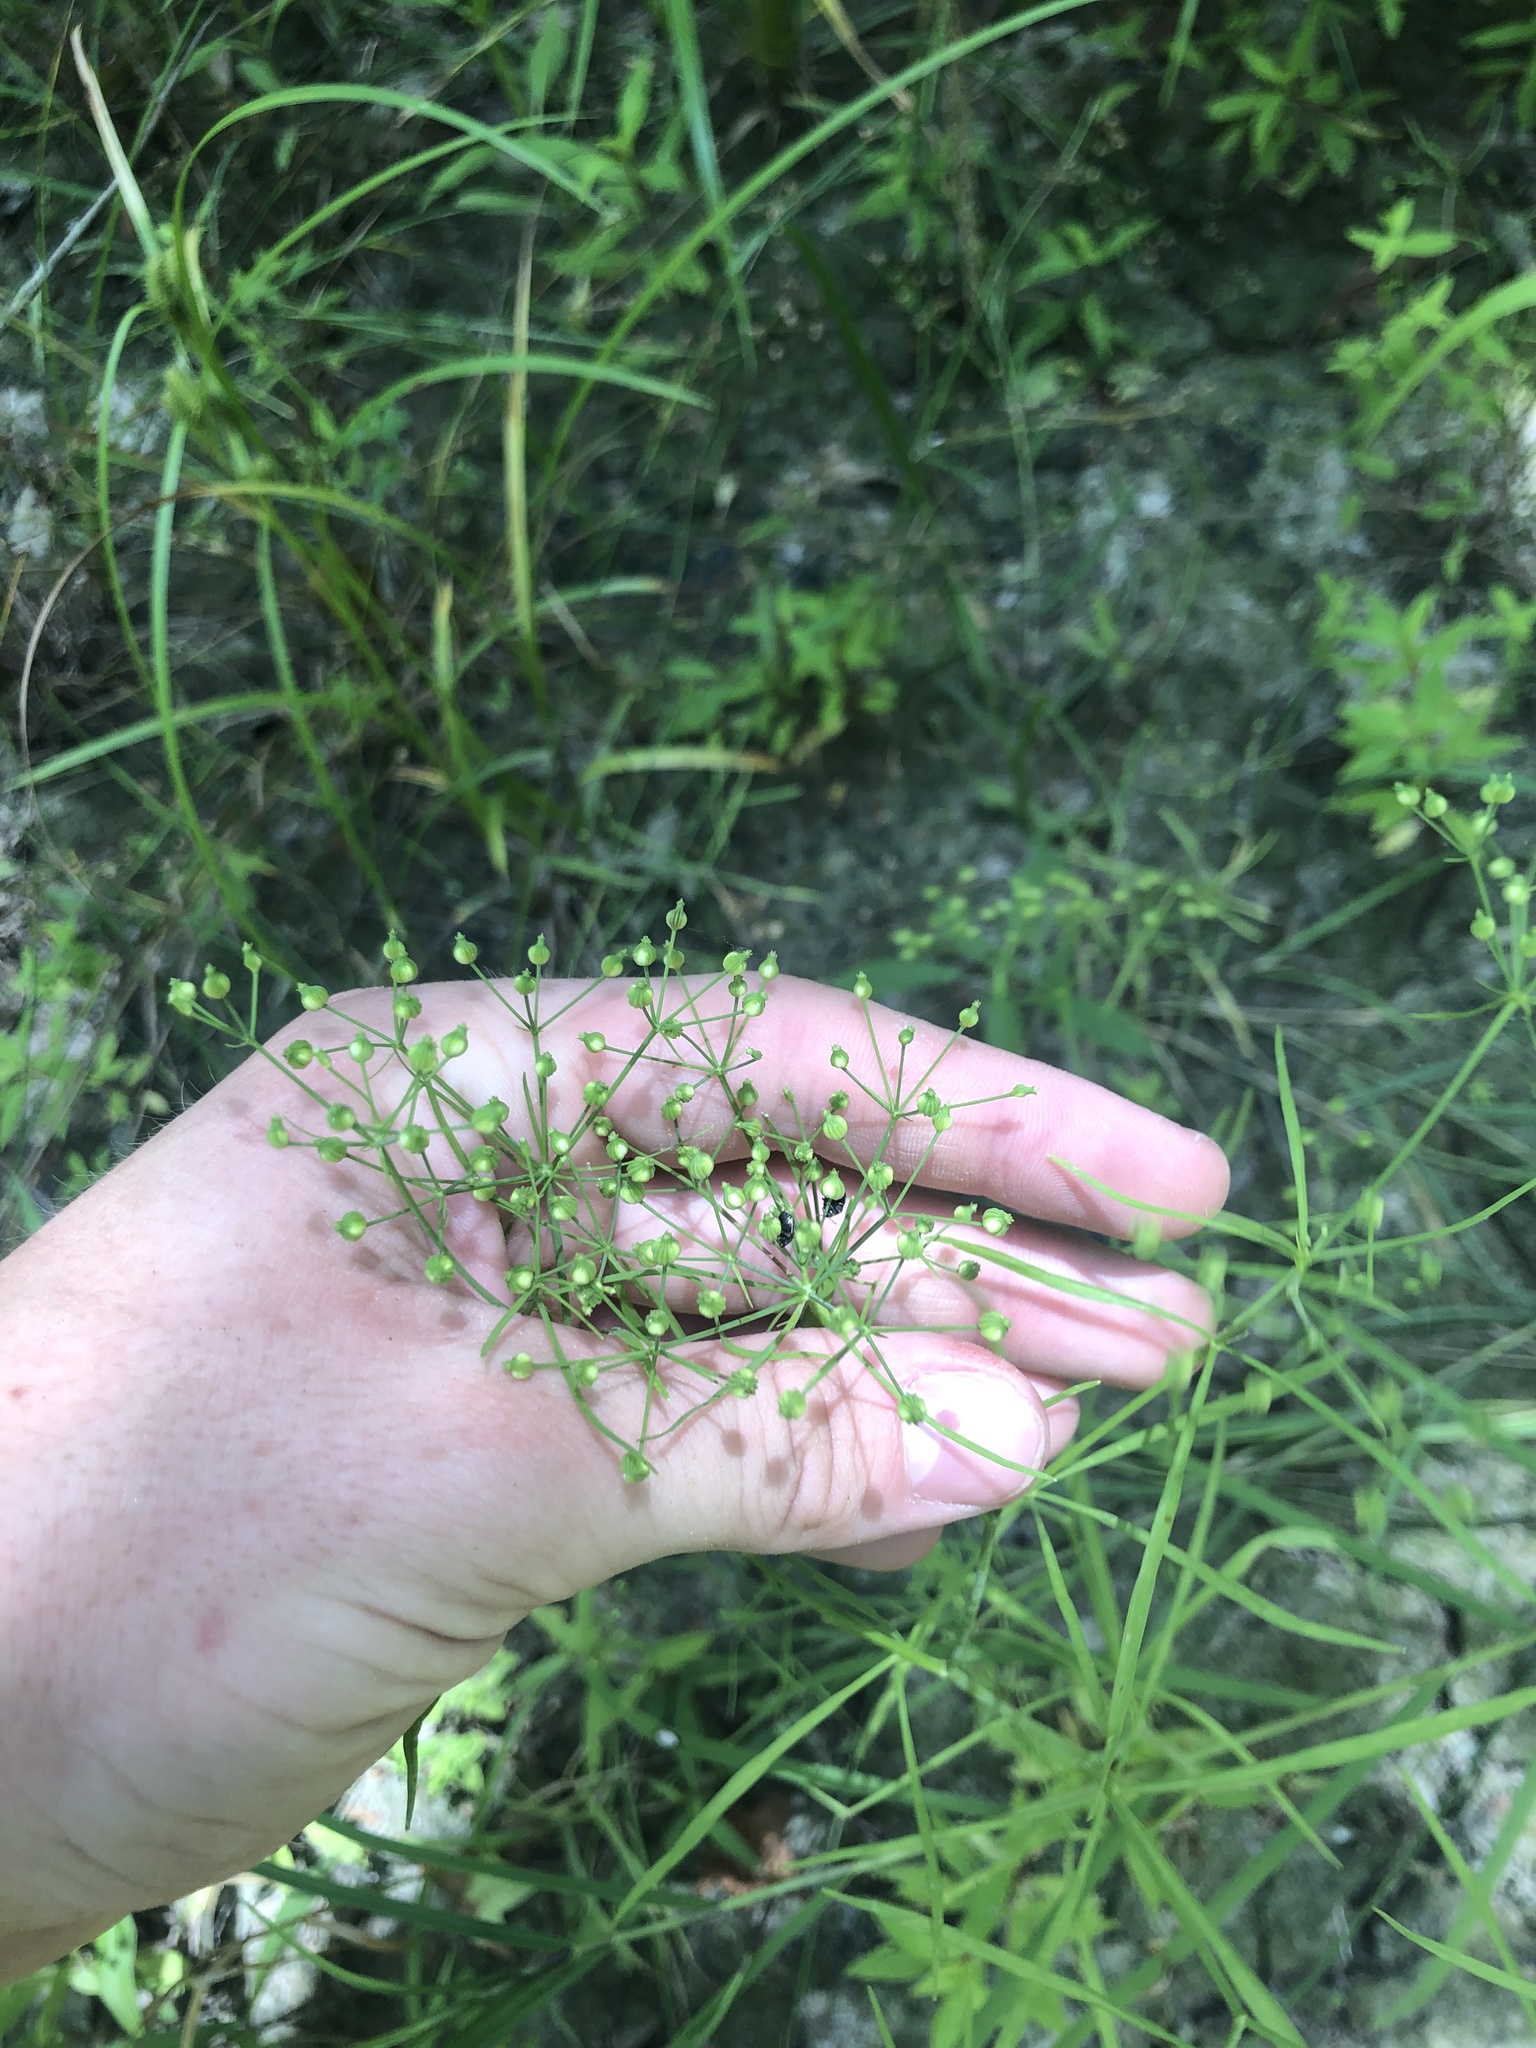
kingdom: Plantae
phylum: Tracheophyta
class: Magnoliopsida
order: Apiales
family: Apiaceae
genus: Cynosciadium
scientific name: Cynosciadium digitatum
